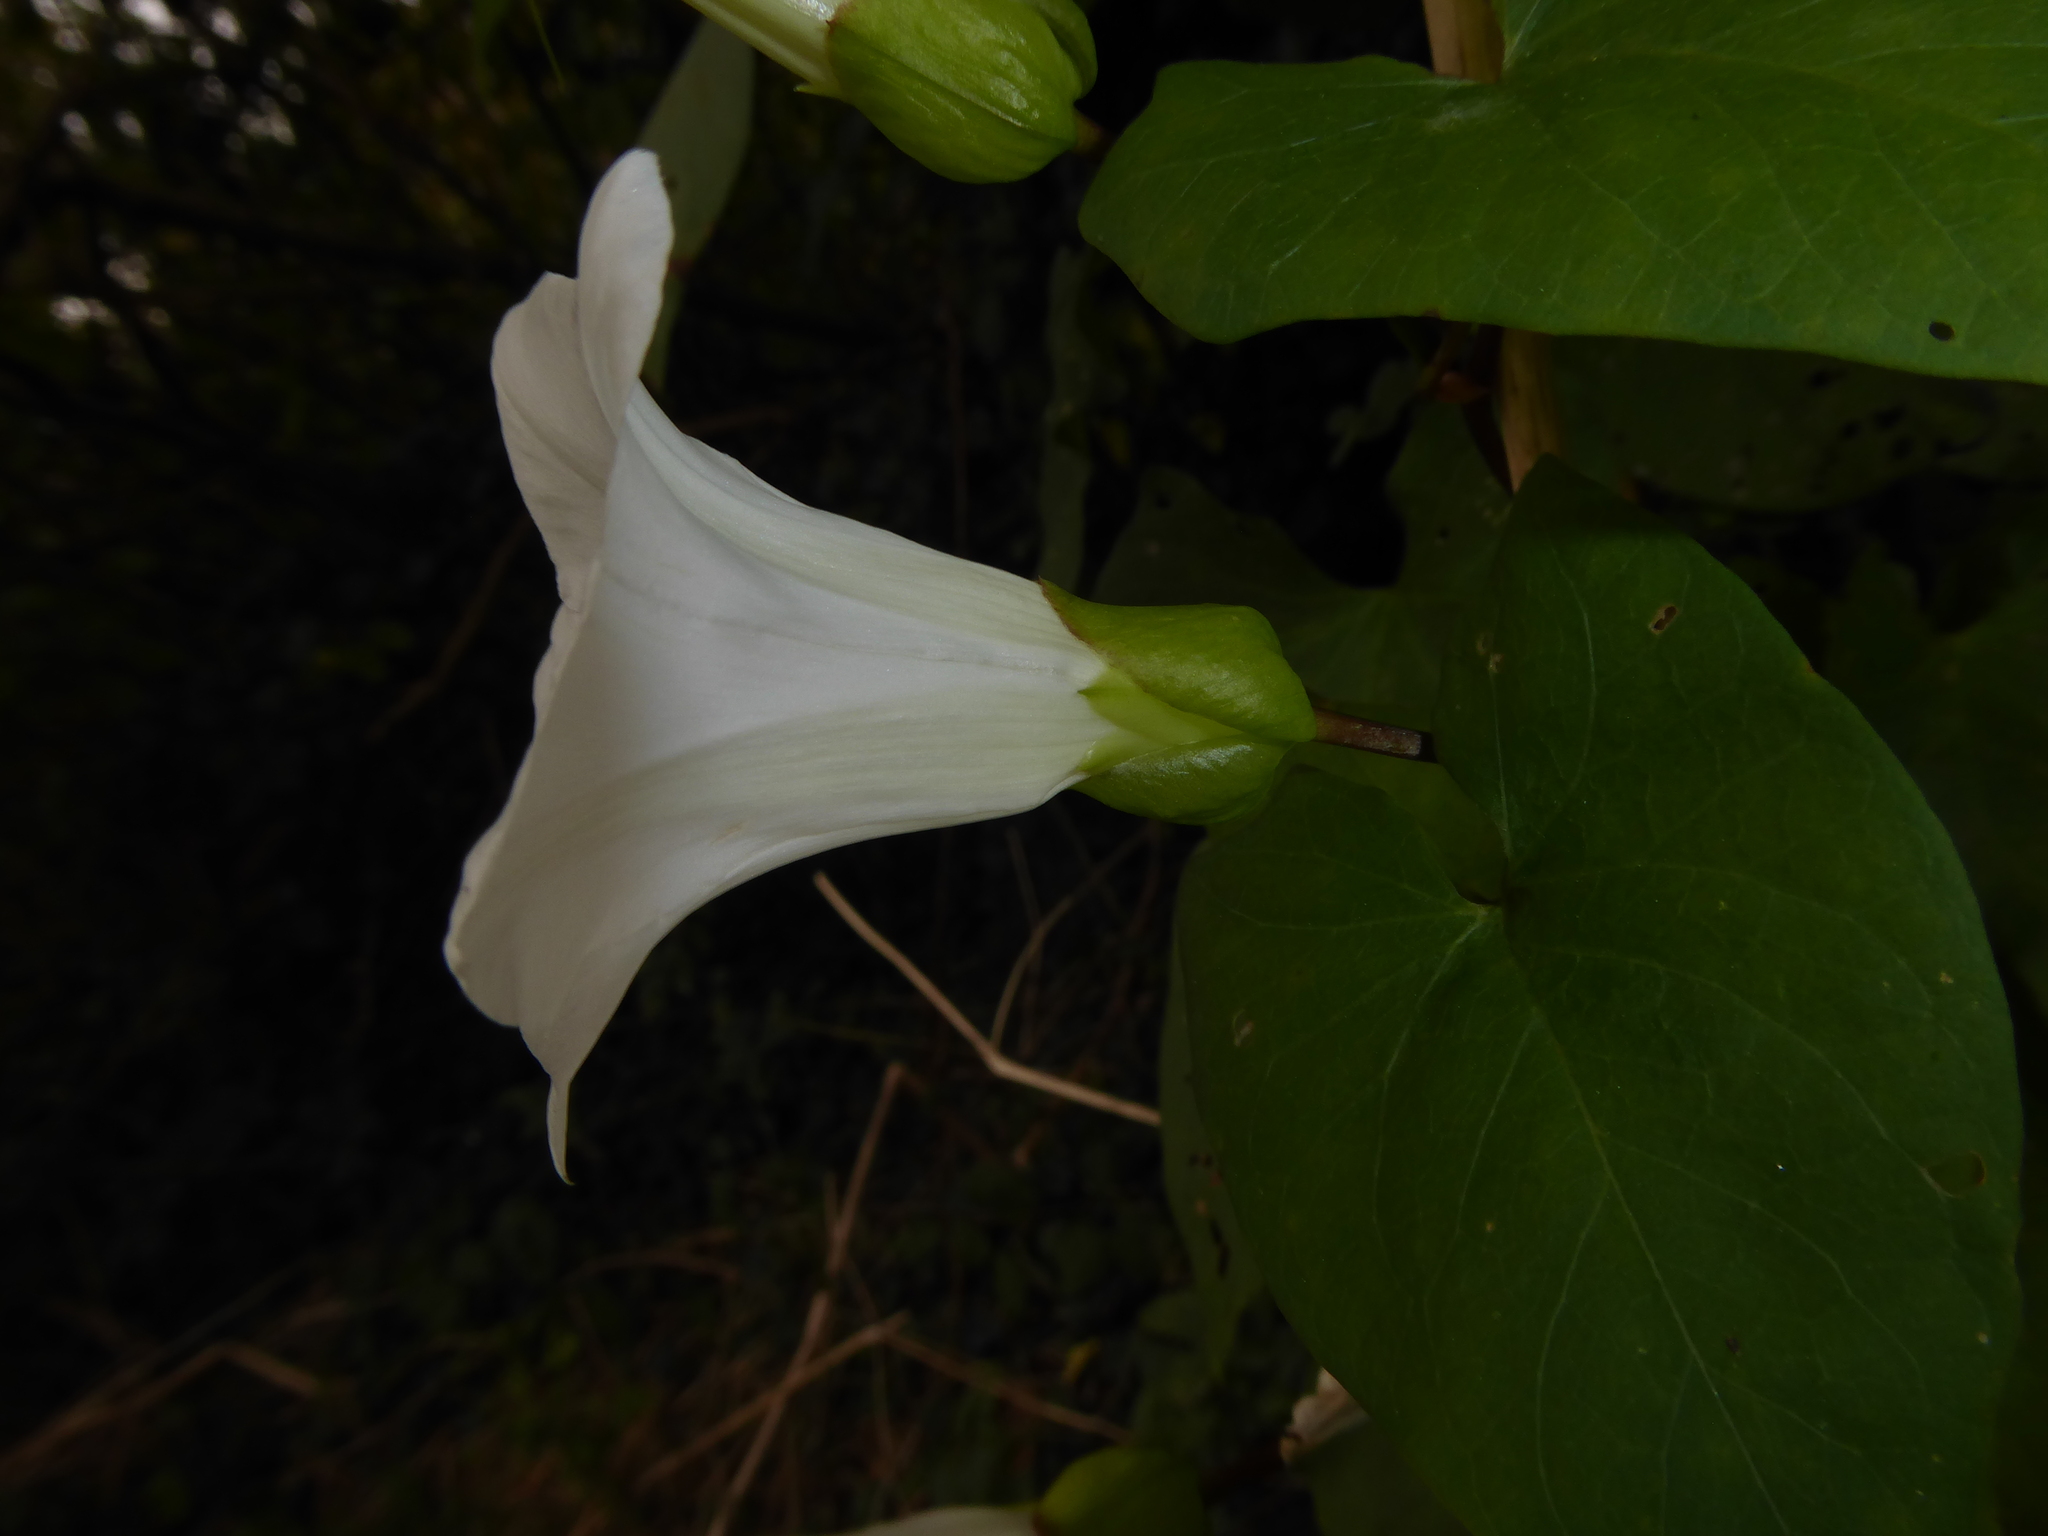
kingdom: Plantae
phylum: Tracheophyta
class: Magnoliopsida
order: Solanales
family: Convolvulaceae
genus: Calystegia
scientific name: Calystegia lucana
